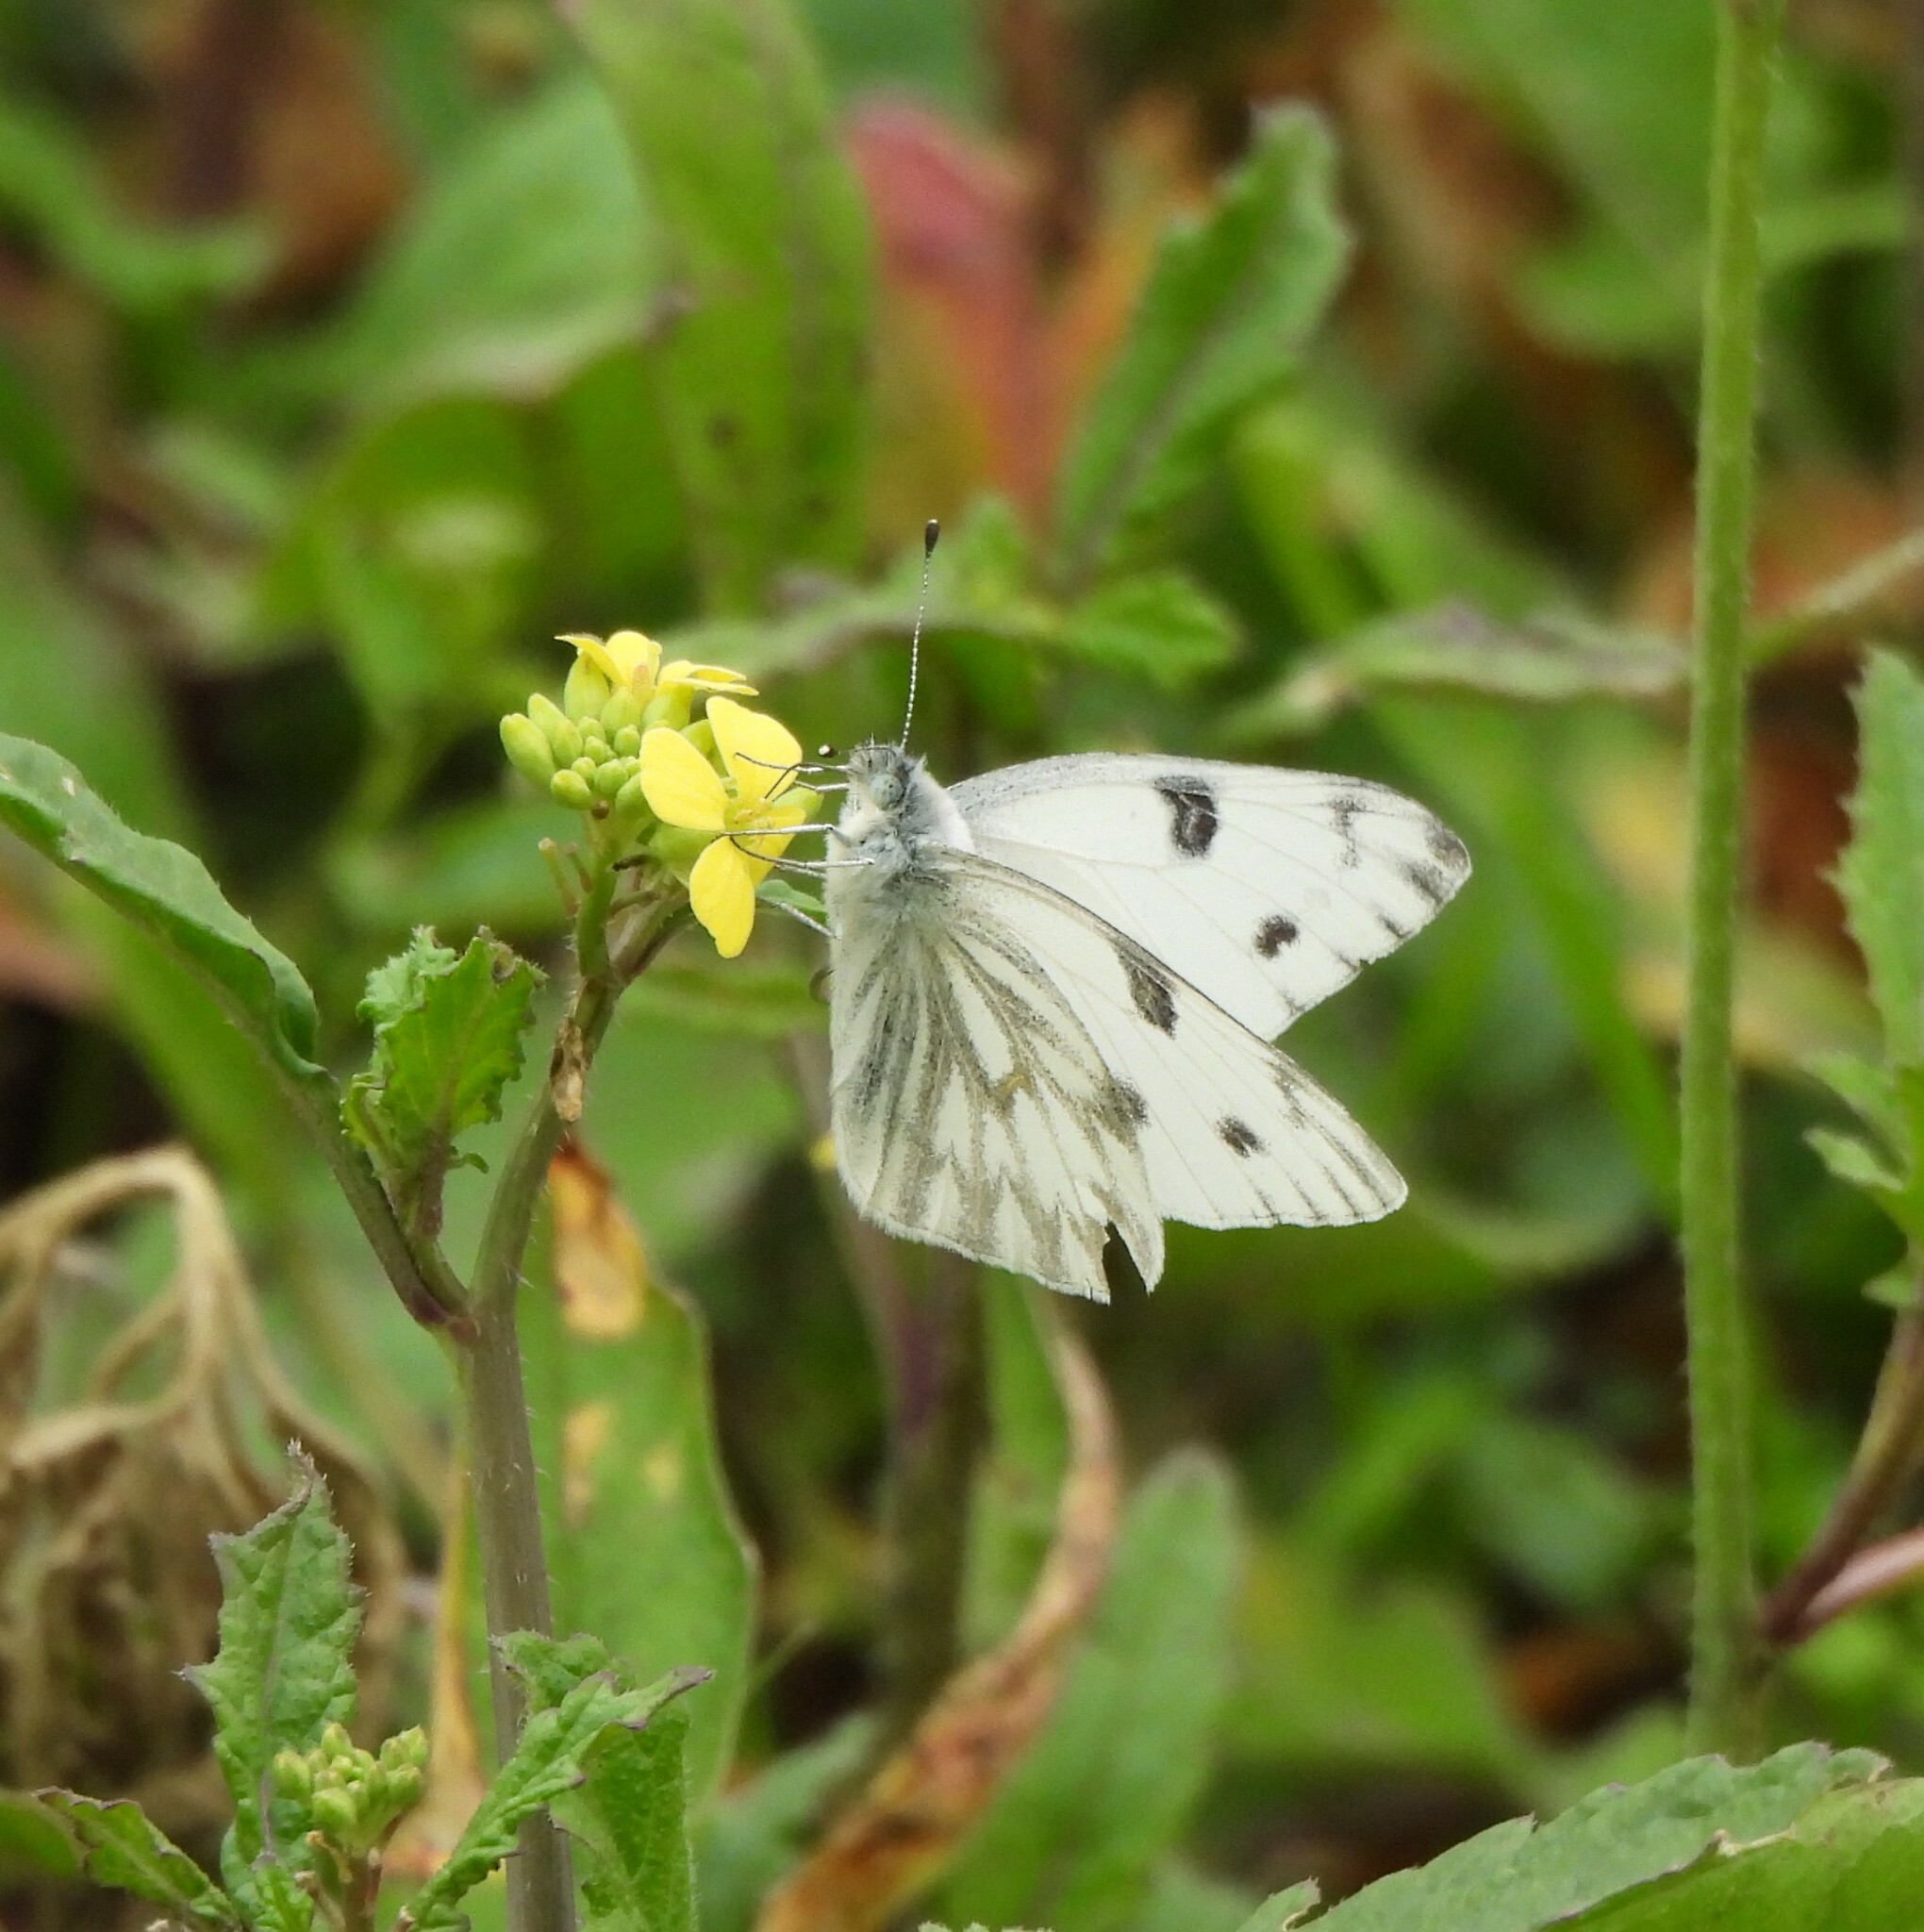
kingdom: Animalia
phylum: Arthropoda
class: Insecta
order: Lepidoptera
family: Pieridae
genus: Pontia
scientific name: Pontia protodice
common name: Checkered white
